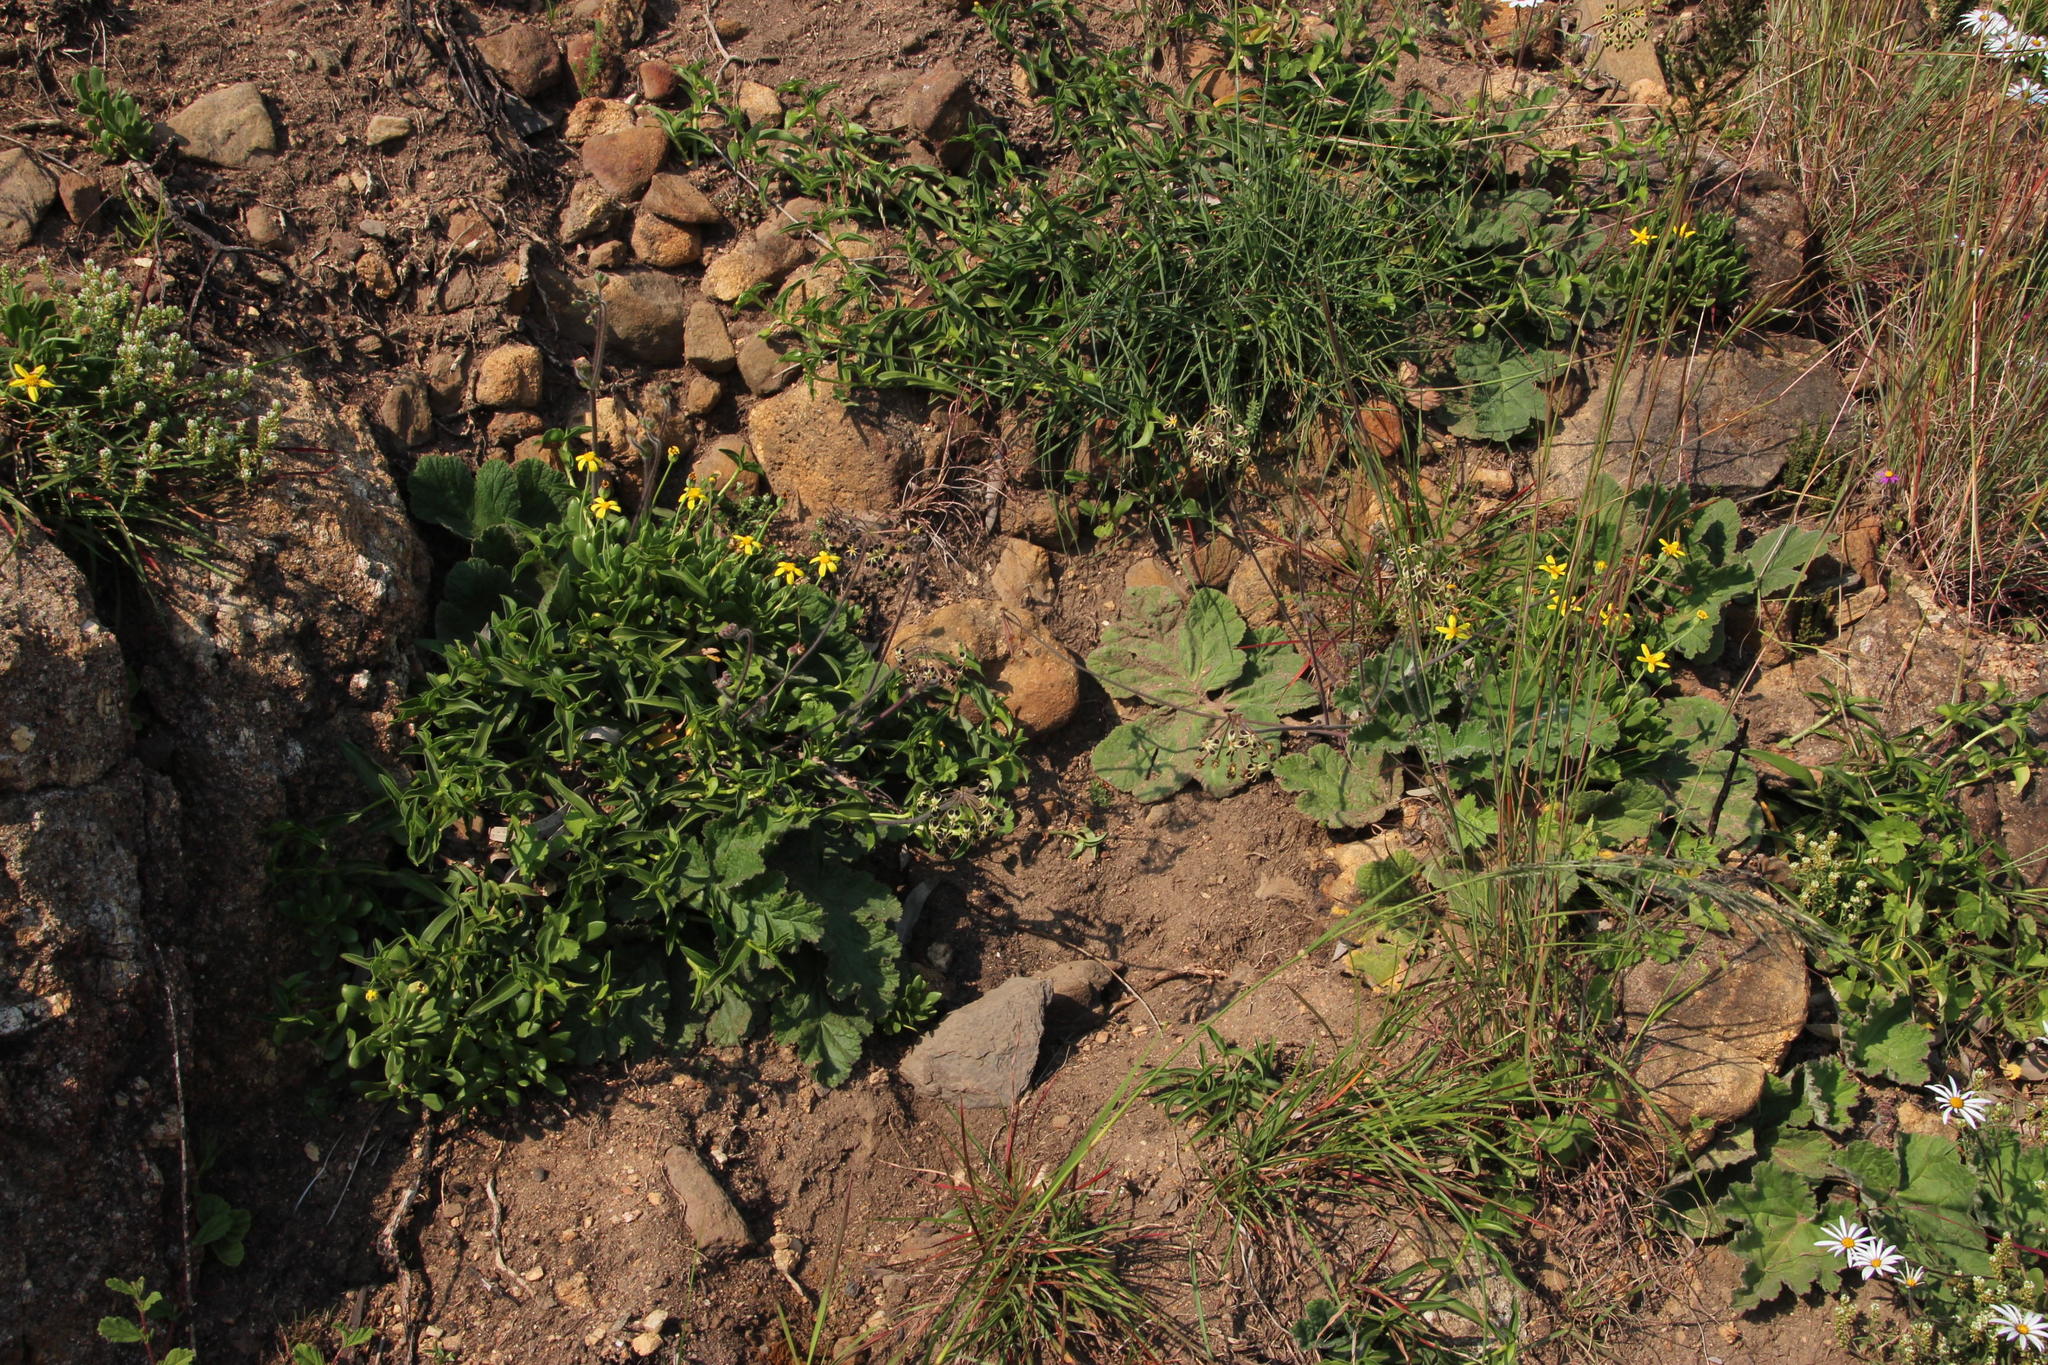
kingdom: Plantae
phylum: Tracheophyta
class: Magnoliopsida
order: Geraniales
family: Geraniaceae
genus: Pelargonium
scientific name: Pelargonium lobatum
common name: Vine-leaf pelargonium
